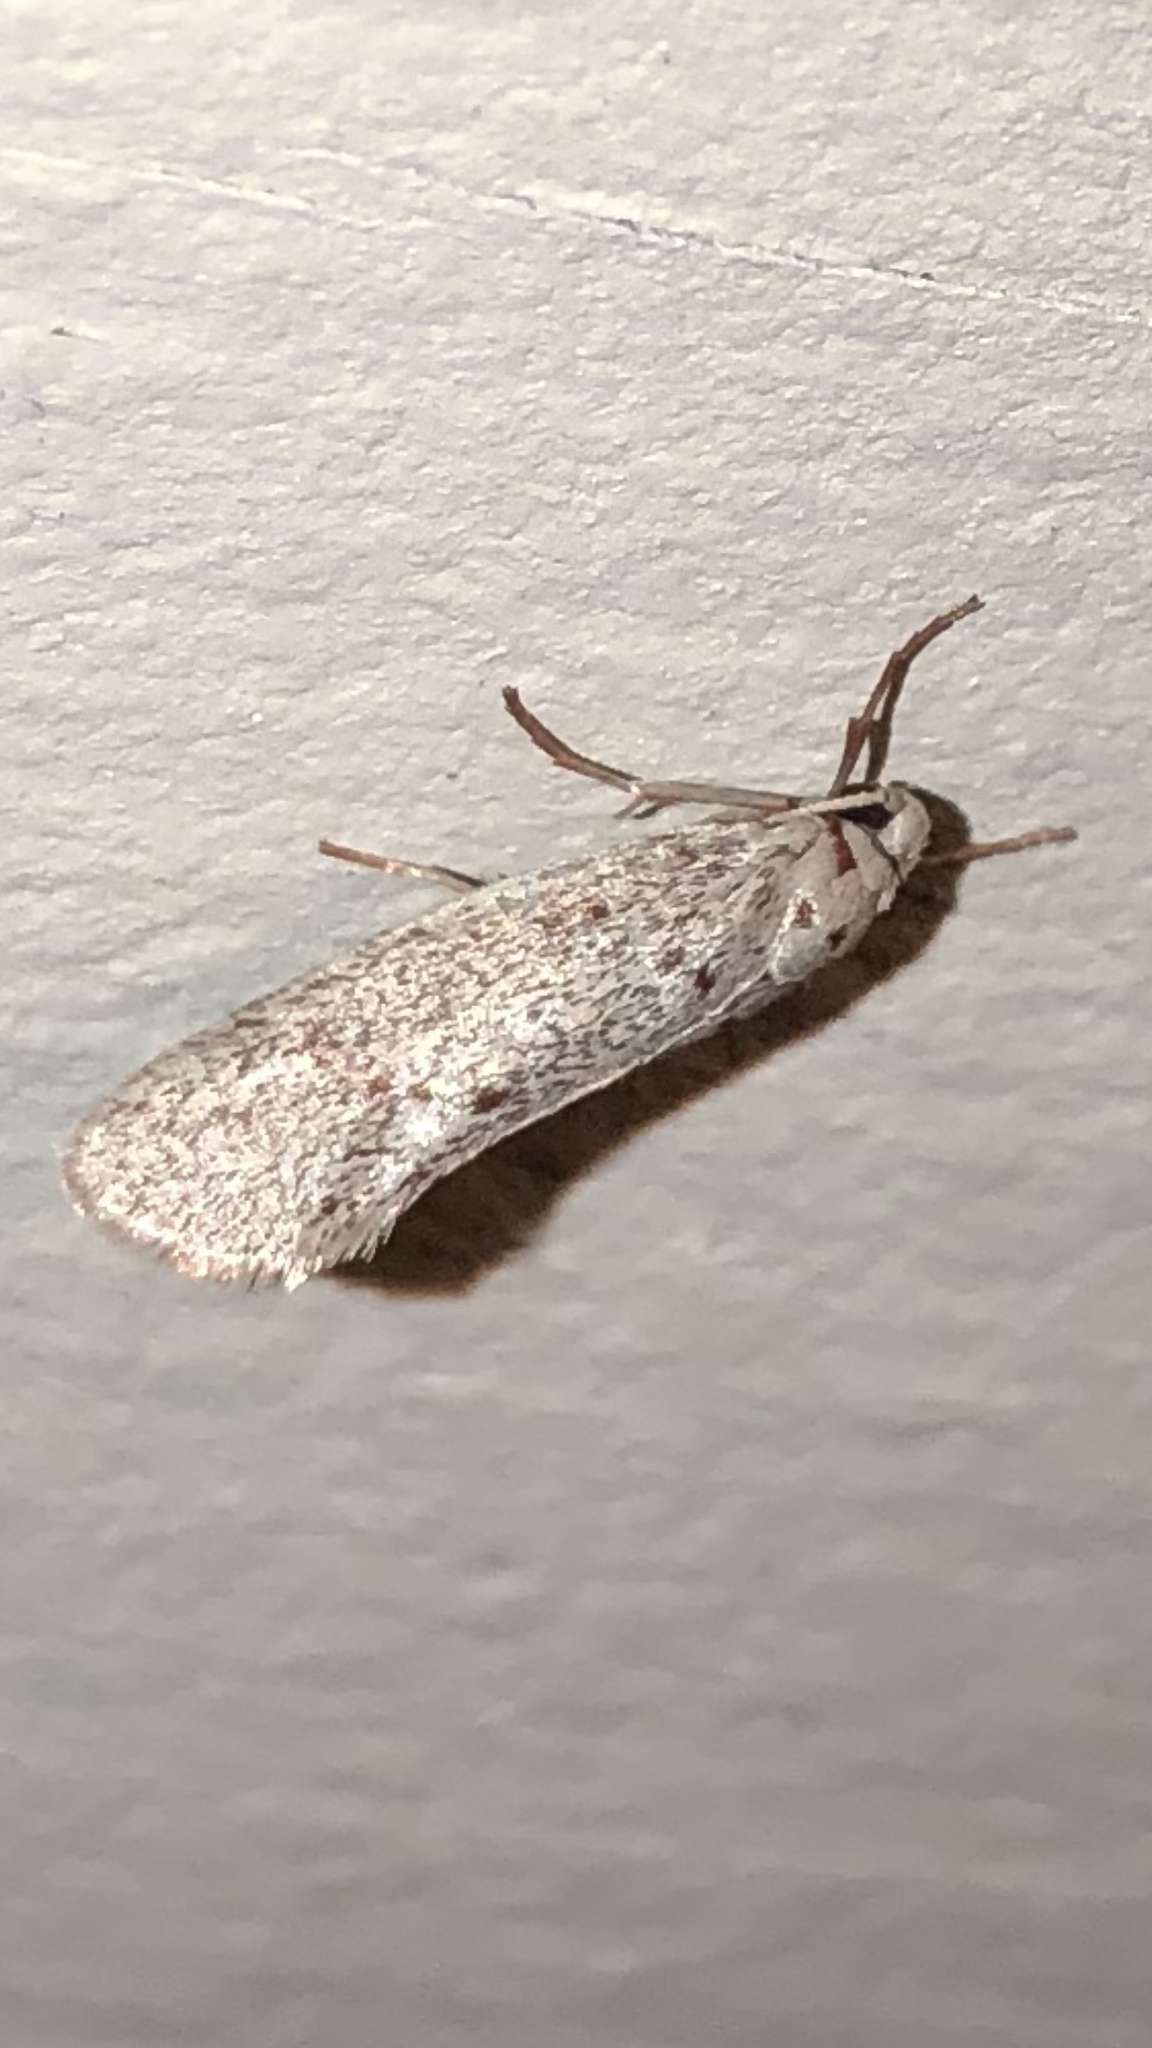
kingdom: Animalia
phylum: Arthropoda
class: Insecta
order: Lepidoptera
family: Lacturidae
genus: Lactura
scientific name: Lactura
